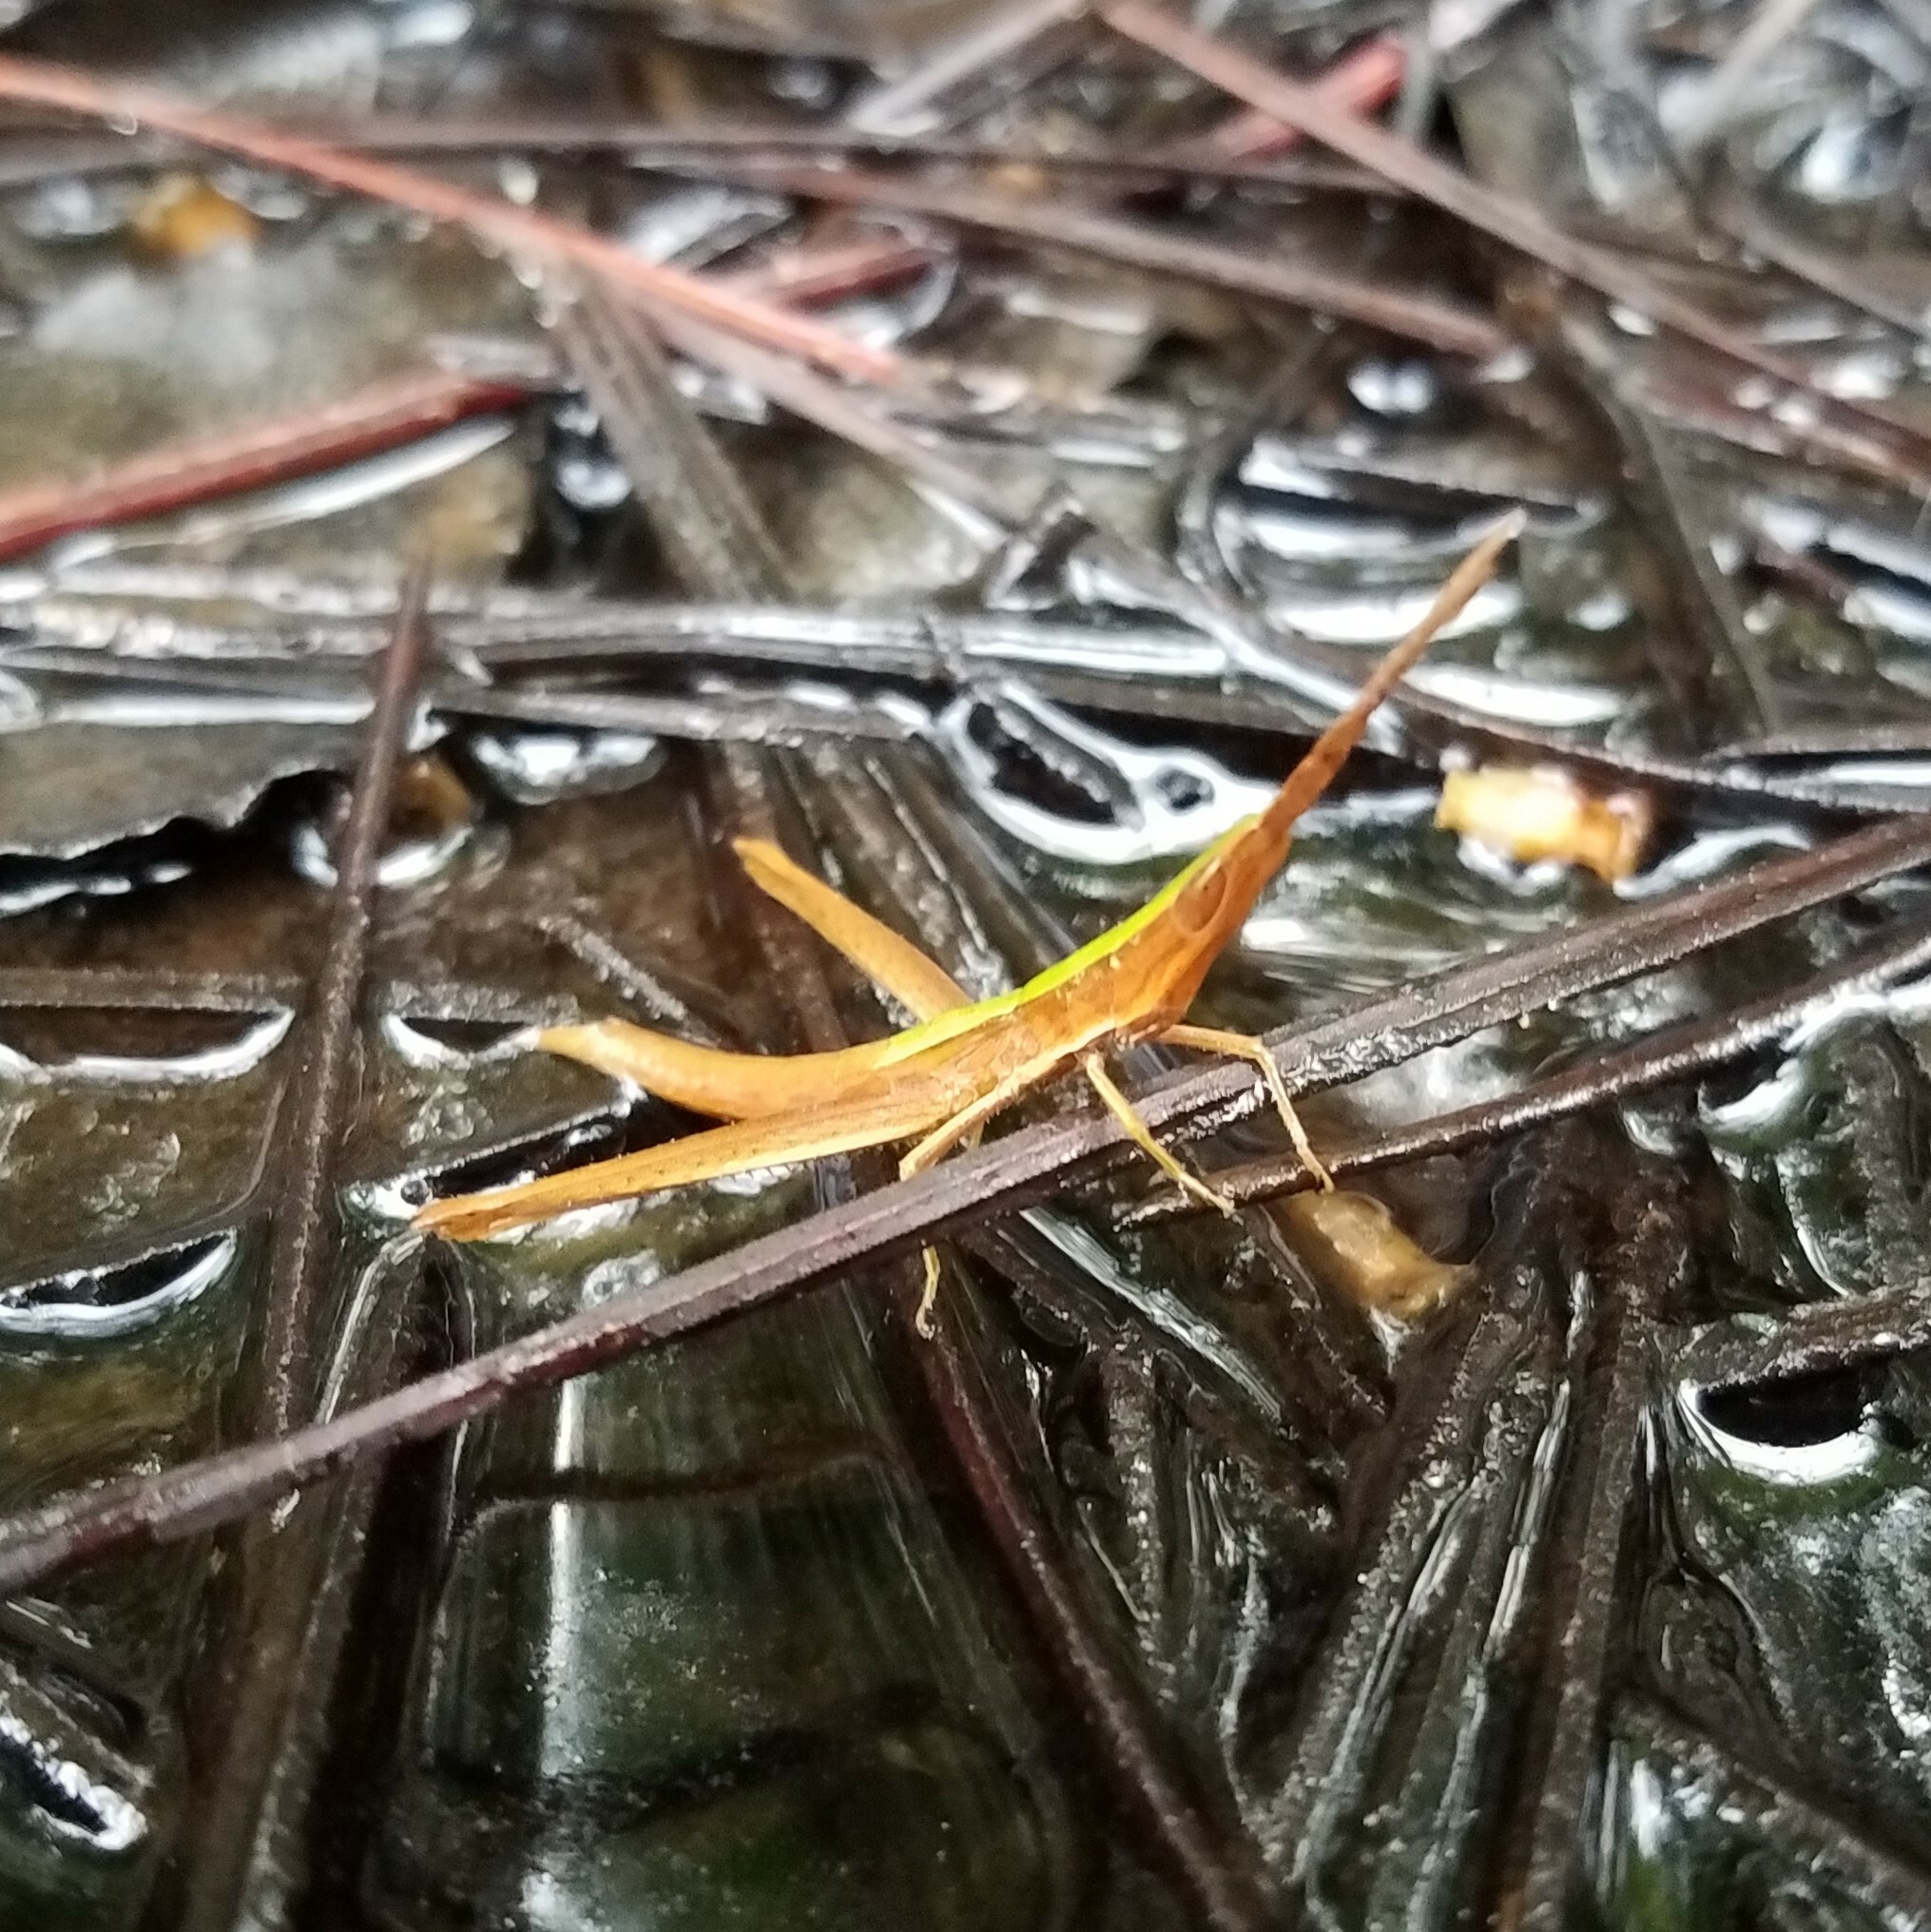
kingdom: Animalia
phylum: Arthropoda
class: Insecta
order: Orthoptera
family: Acrididae
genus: Achurum
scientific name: Achurum carinatum
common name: Long-headed toothpick grasshopper
